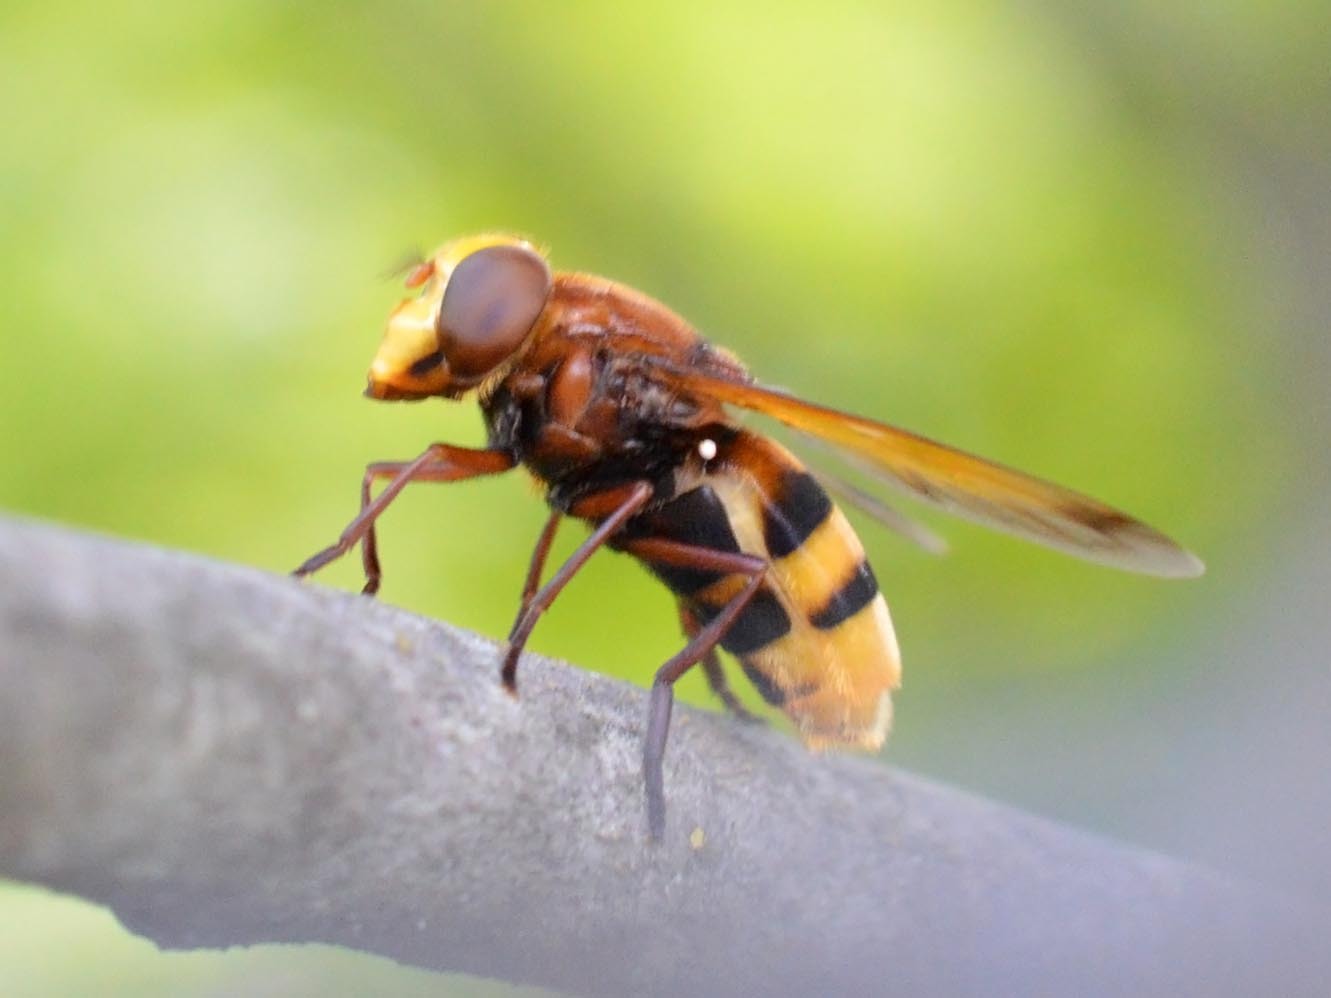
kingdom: Animalia
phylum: Arthropoda
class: Insecta
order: Diptera
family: Syrphidae
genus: Volucella
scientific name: Volucella zonaria
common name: Hornet hoverfly
